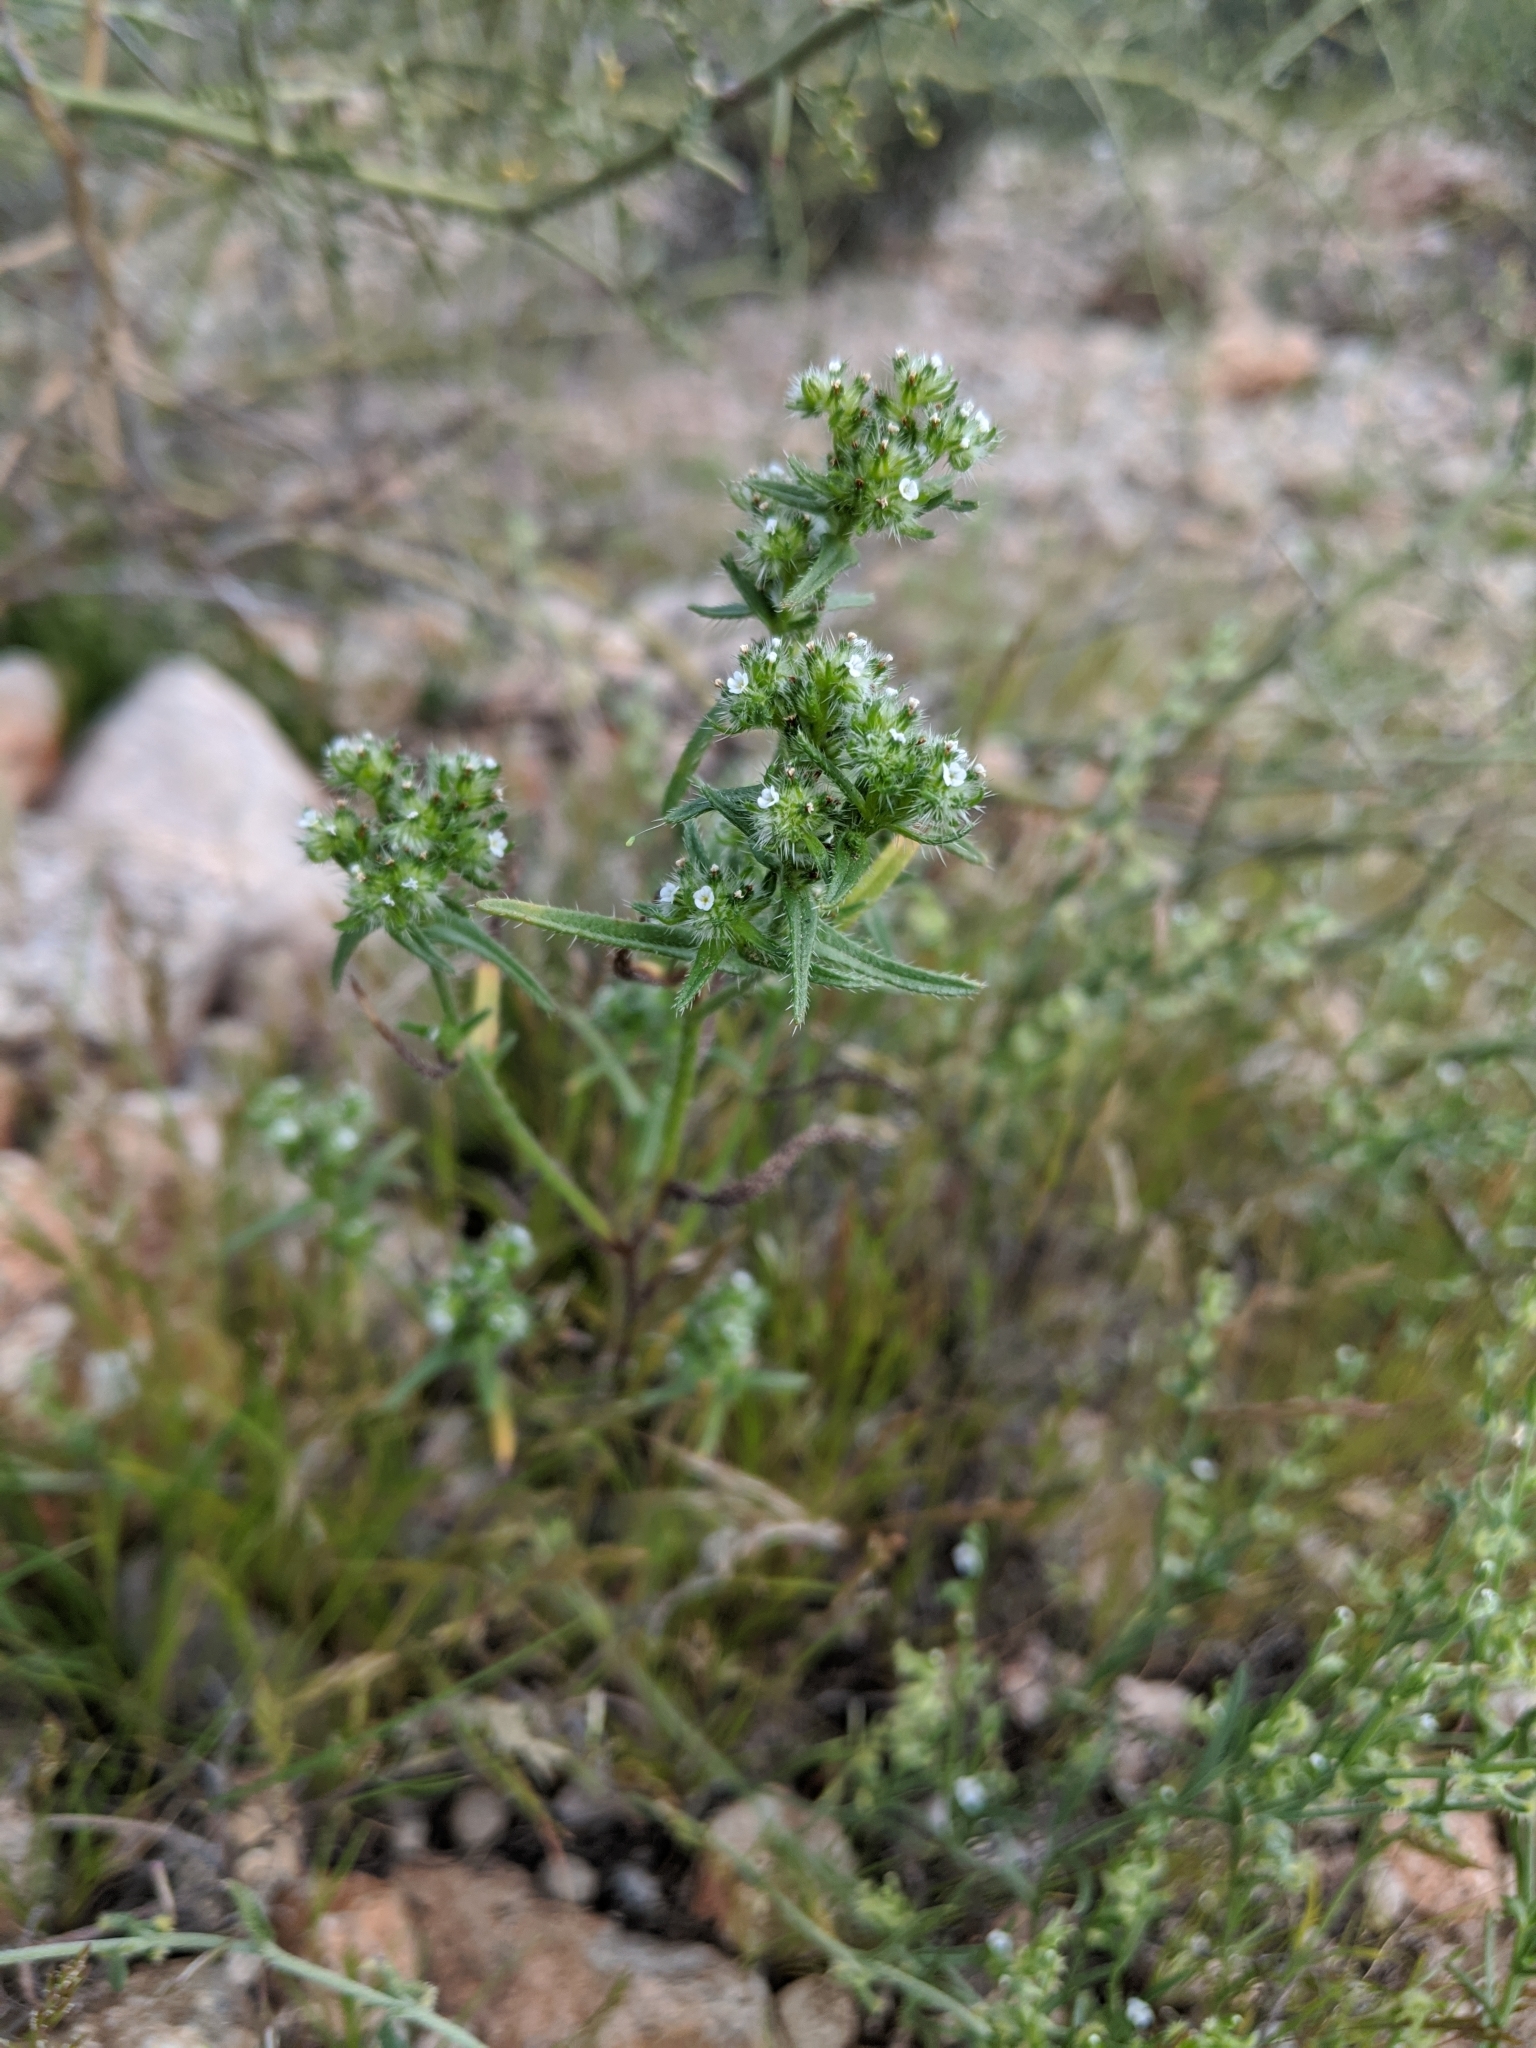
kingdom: Plantae
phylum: Tracheophyta
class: Magnoliopsida
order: Boraginales
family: Boraginaceae
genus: Johnstonella
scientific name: Johnstonella angustifolia
